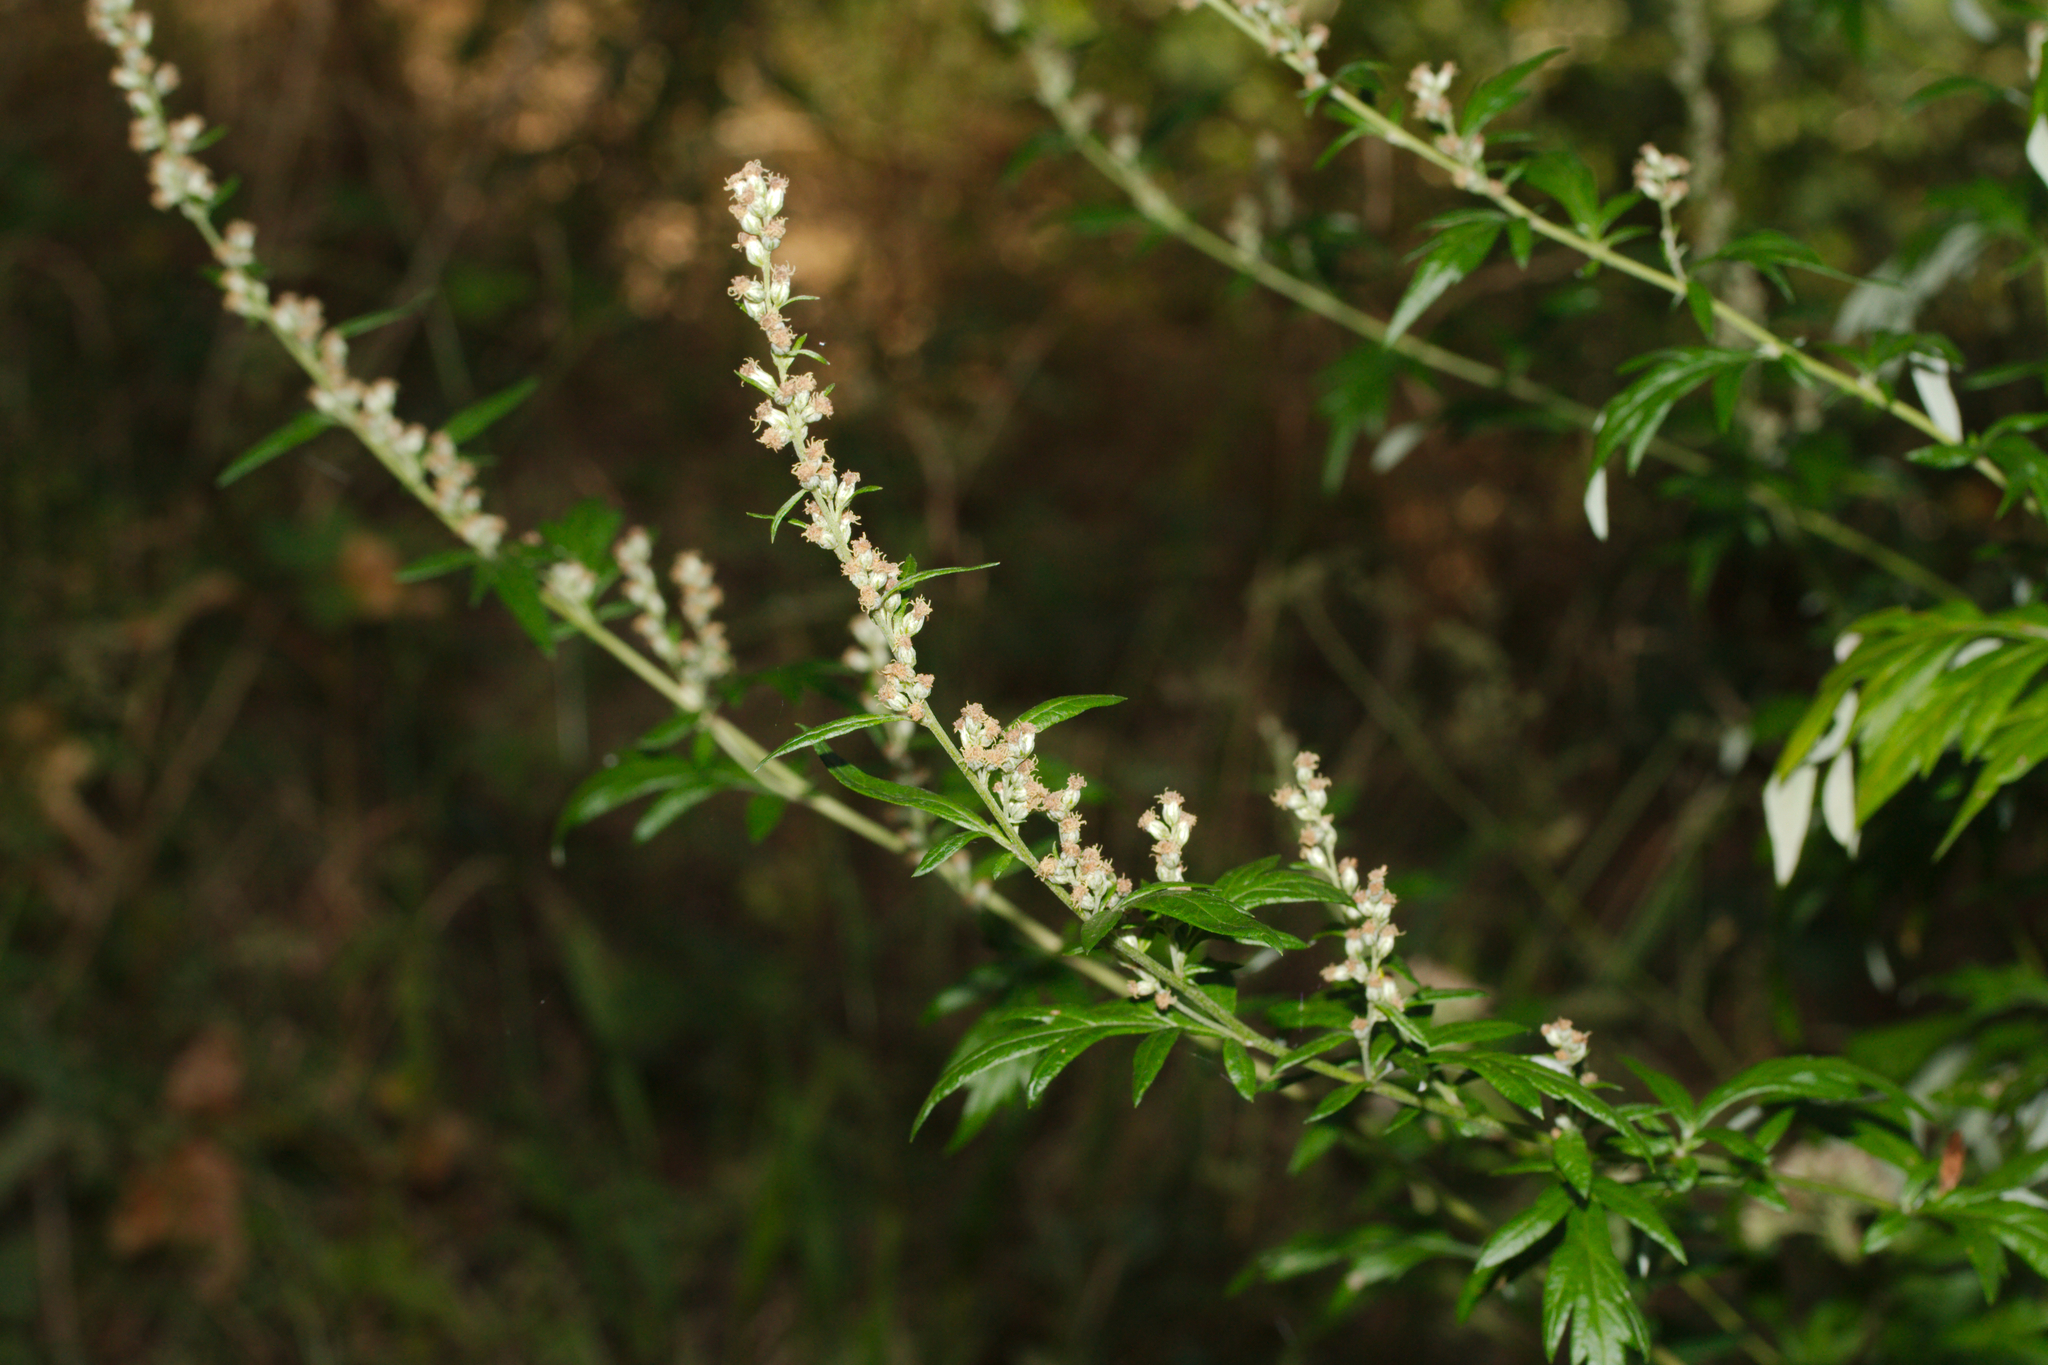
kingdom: Plantae
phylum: Tracheophyta
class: Magnoliopsida
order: Asterales
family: Asteraceae
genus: Artemisia
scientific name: Artemisia vulgaris
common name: Mugwort
